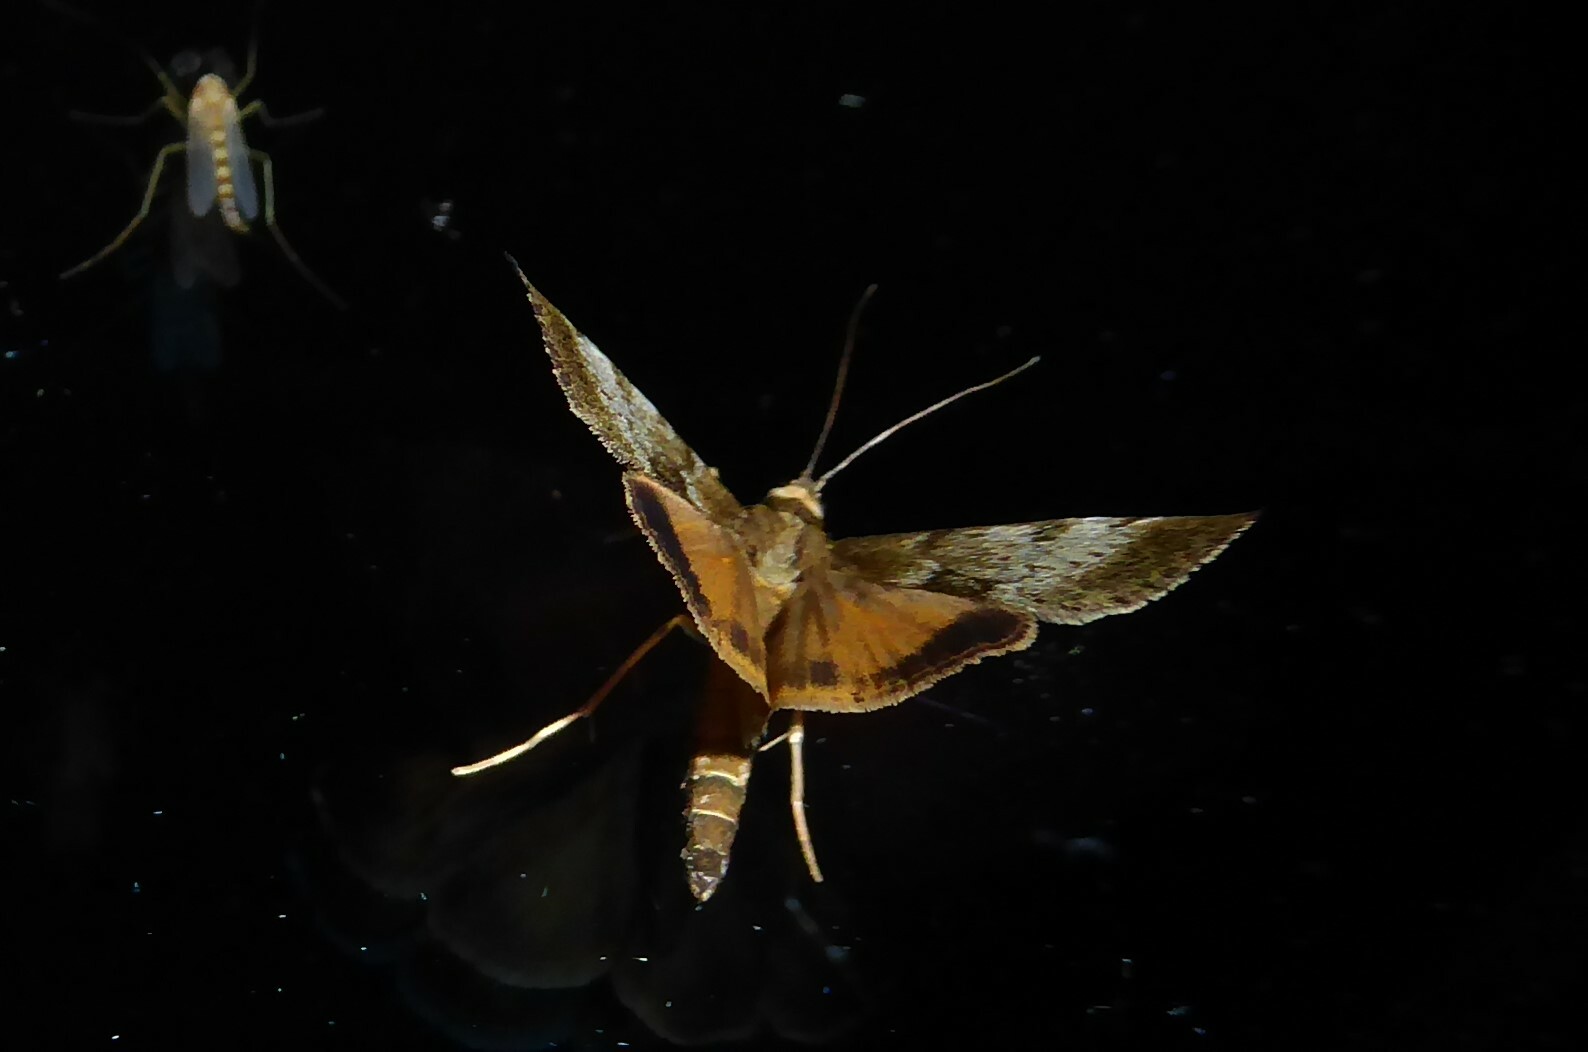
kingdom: Animalia
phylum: Arthropoda
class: Insecta
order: Lepidoptera
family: Crambidae
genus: Uresiphita
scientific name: Uresiphita
